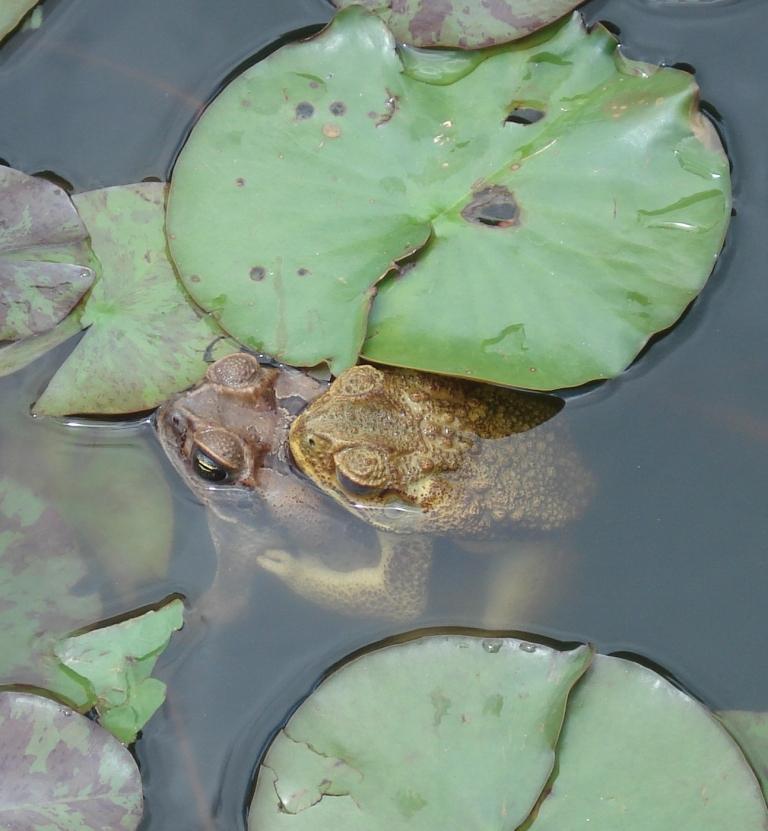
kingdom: Animalia
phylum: Chordata
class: Amphibia
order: Anura
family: Bufonidae
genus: Rhinella
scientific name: Rhinella marina
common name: Cane toad
